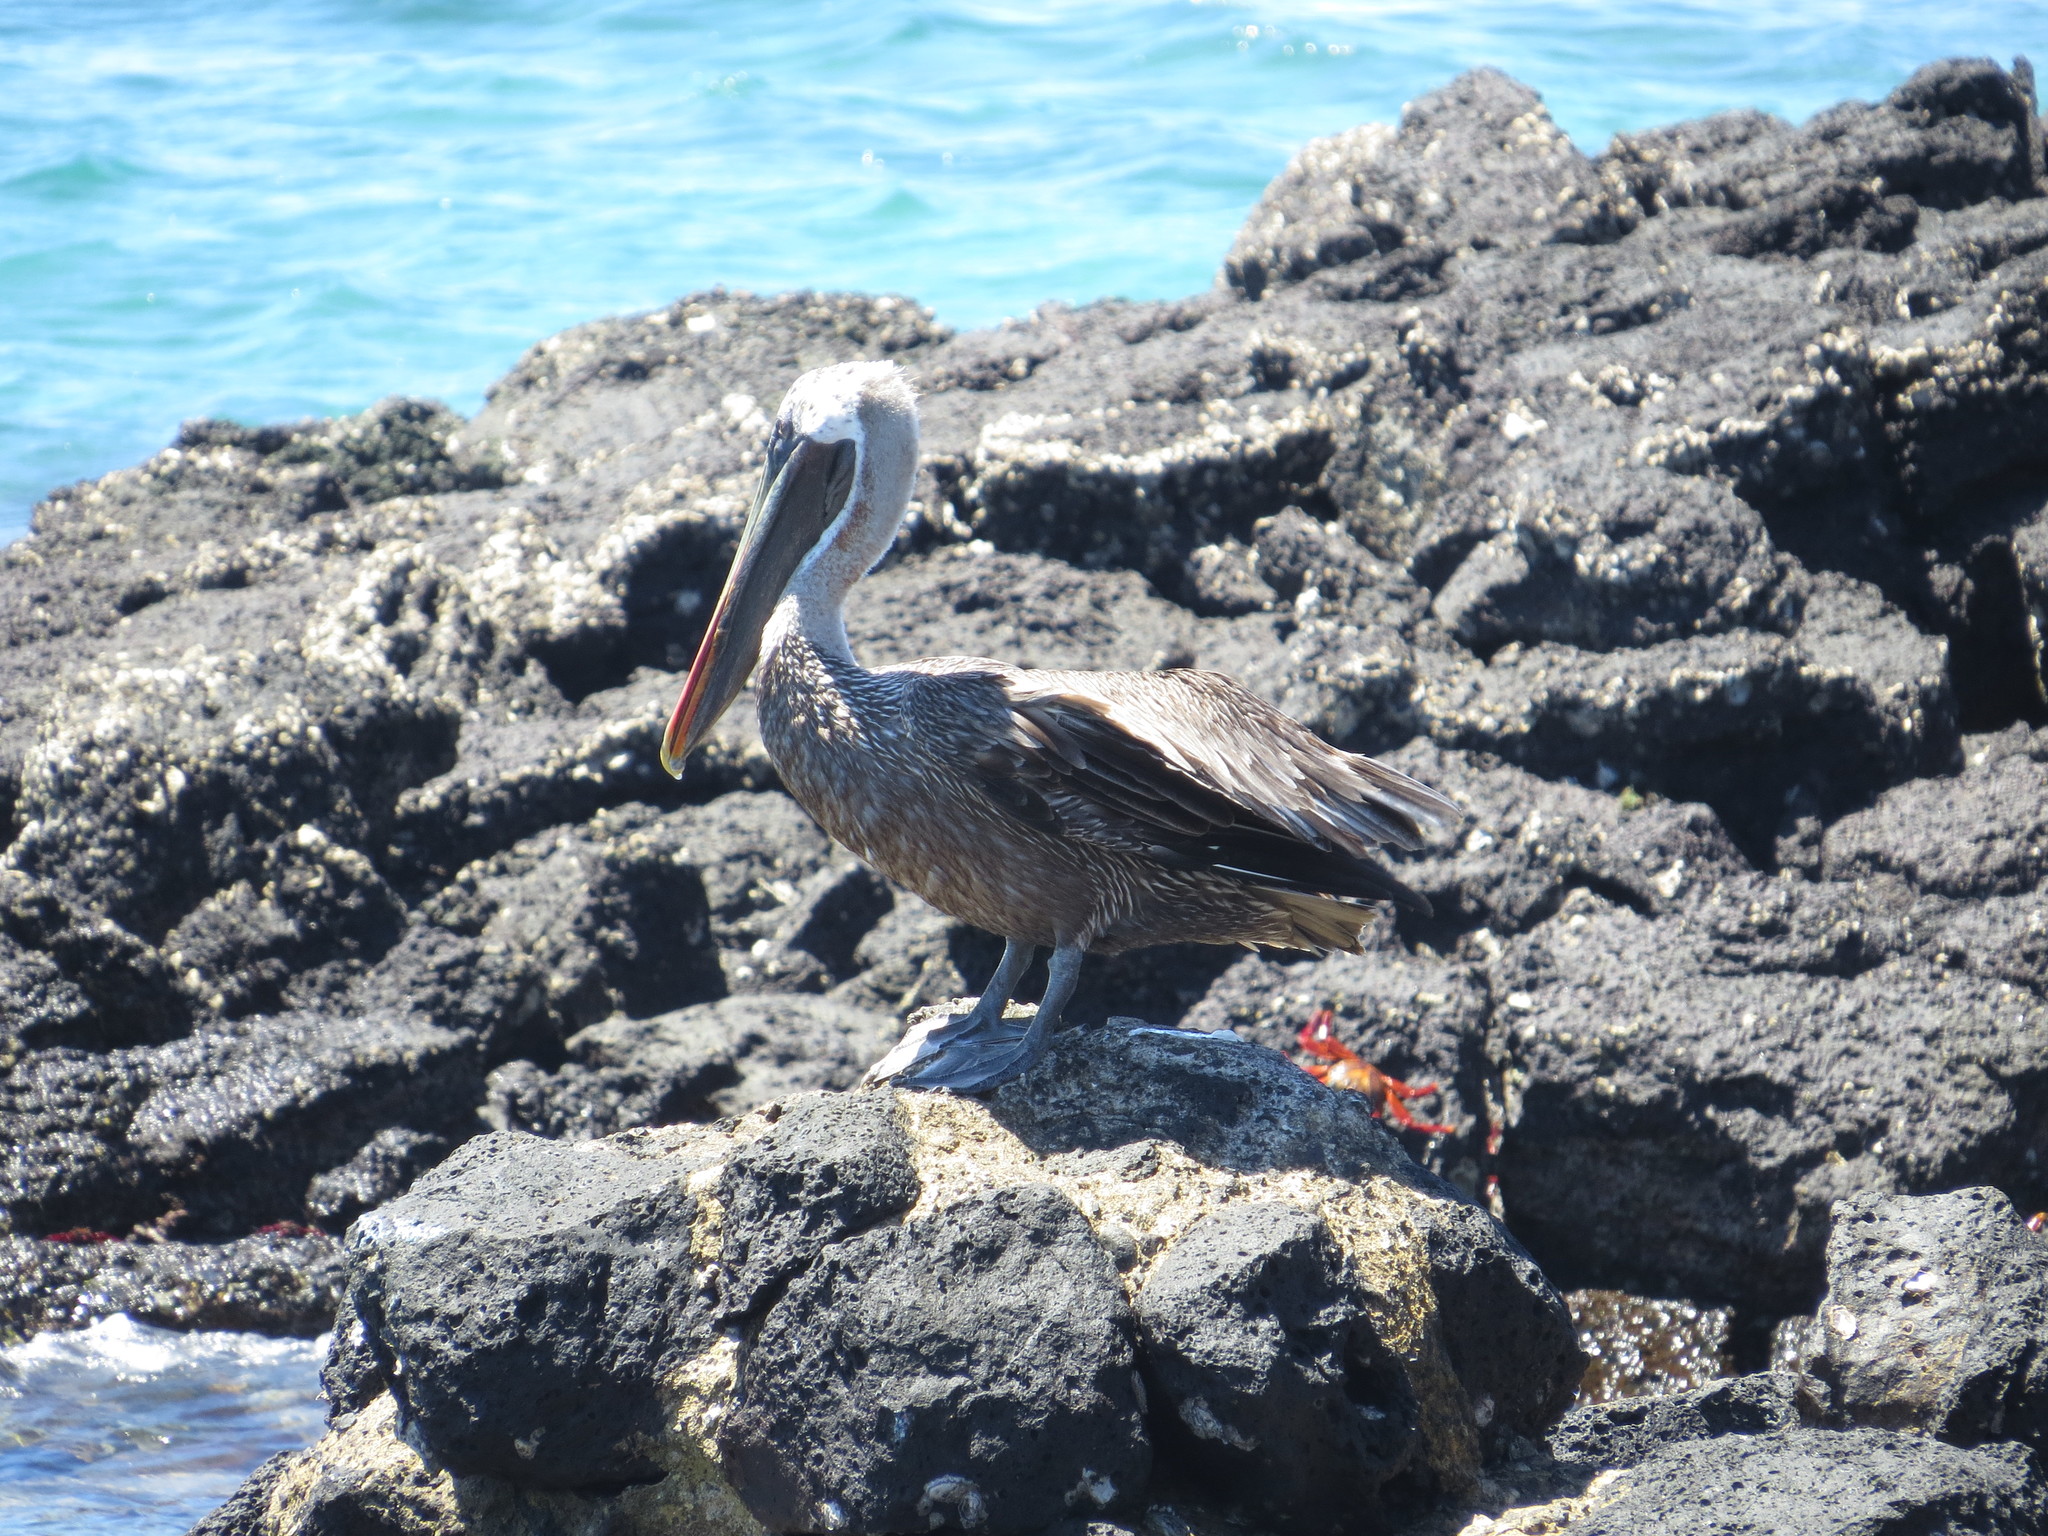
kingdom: Animalia
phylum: Chordata
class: Aves
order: Pelecaniformes
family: Pelecanidae
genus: Pelecanus
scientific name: Pelecanus occidentalis
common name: Brown pelican
